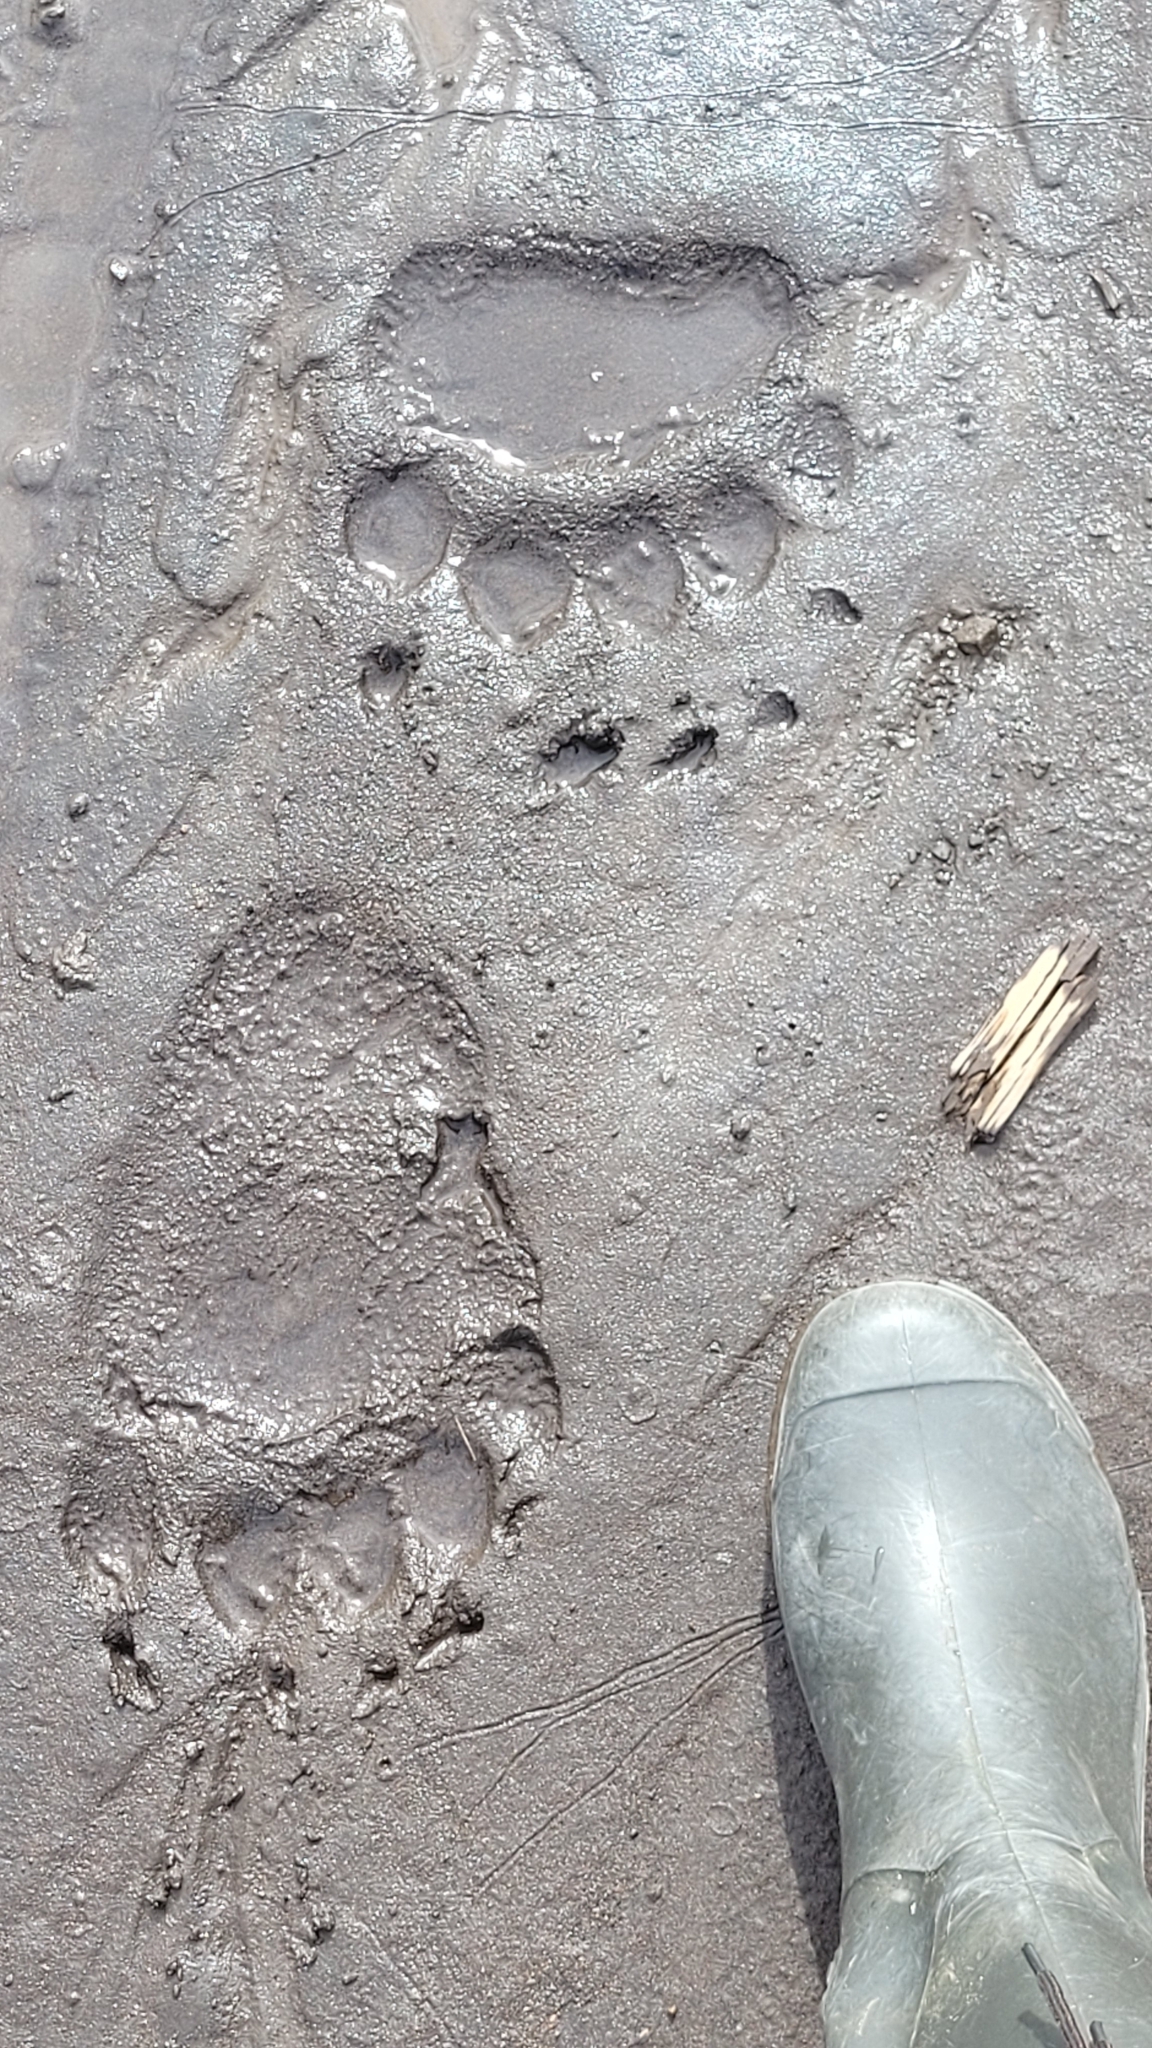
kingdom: Animalia
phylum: Chordata
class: Mammalia
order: Carnivora
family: Ursidae
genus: Ursus
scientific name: Ursus arctos
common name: Brown bear
